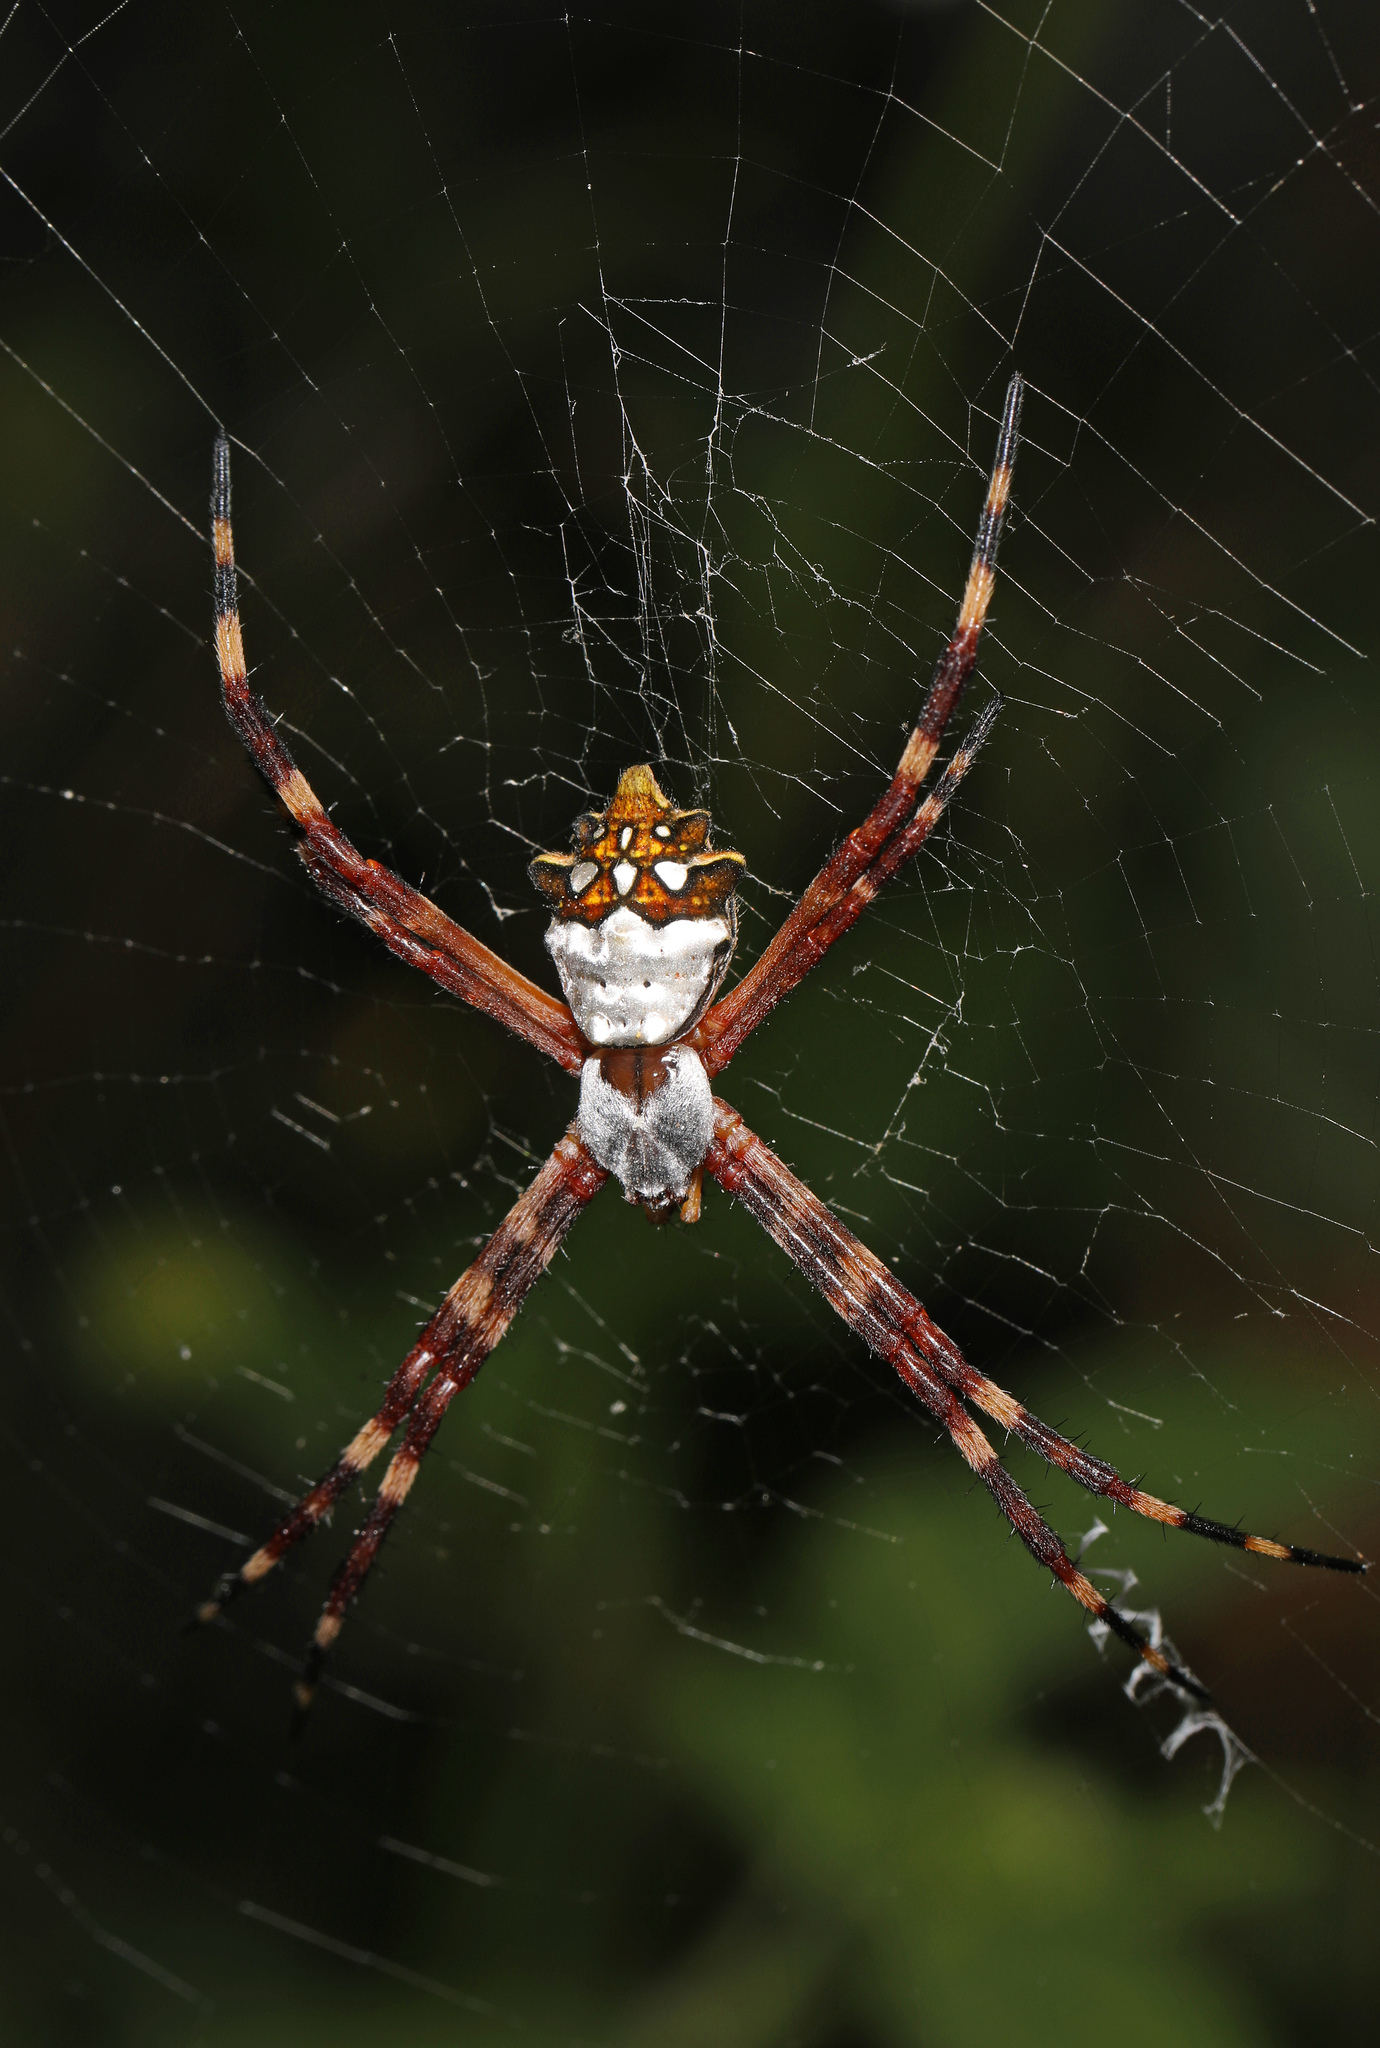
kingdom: Animalia
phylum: Arthropoda
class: Arachnida
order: Araneae
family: Araneidae
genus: Argiope
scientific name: Argiope argentata
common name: Orb weavers
